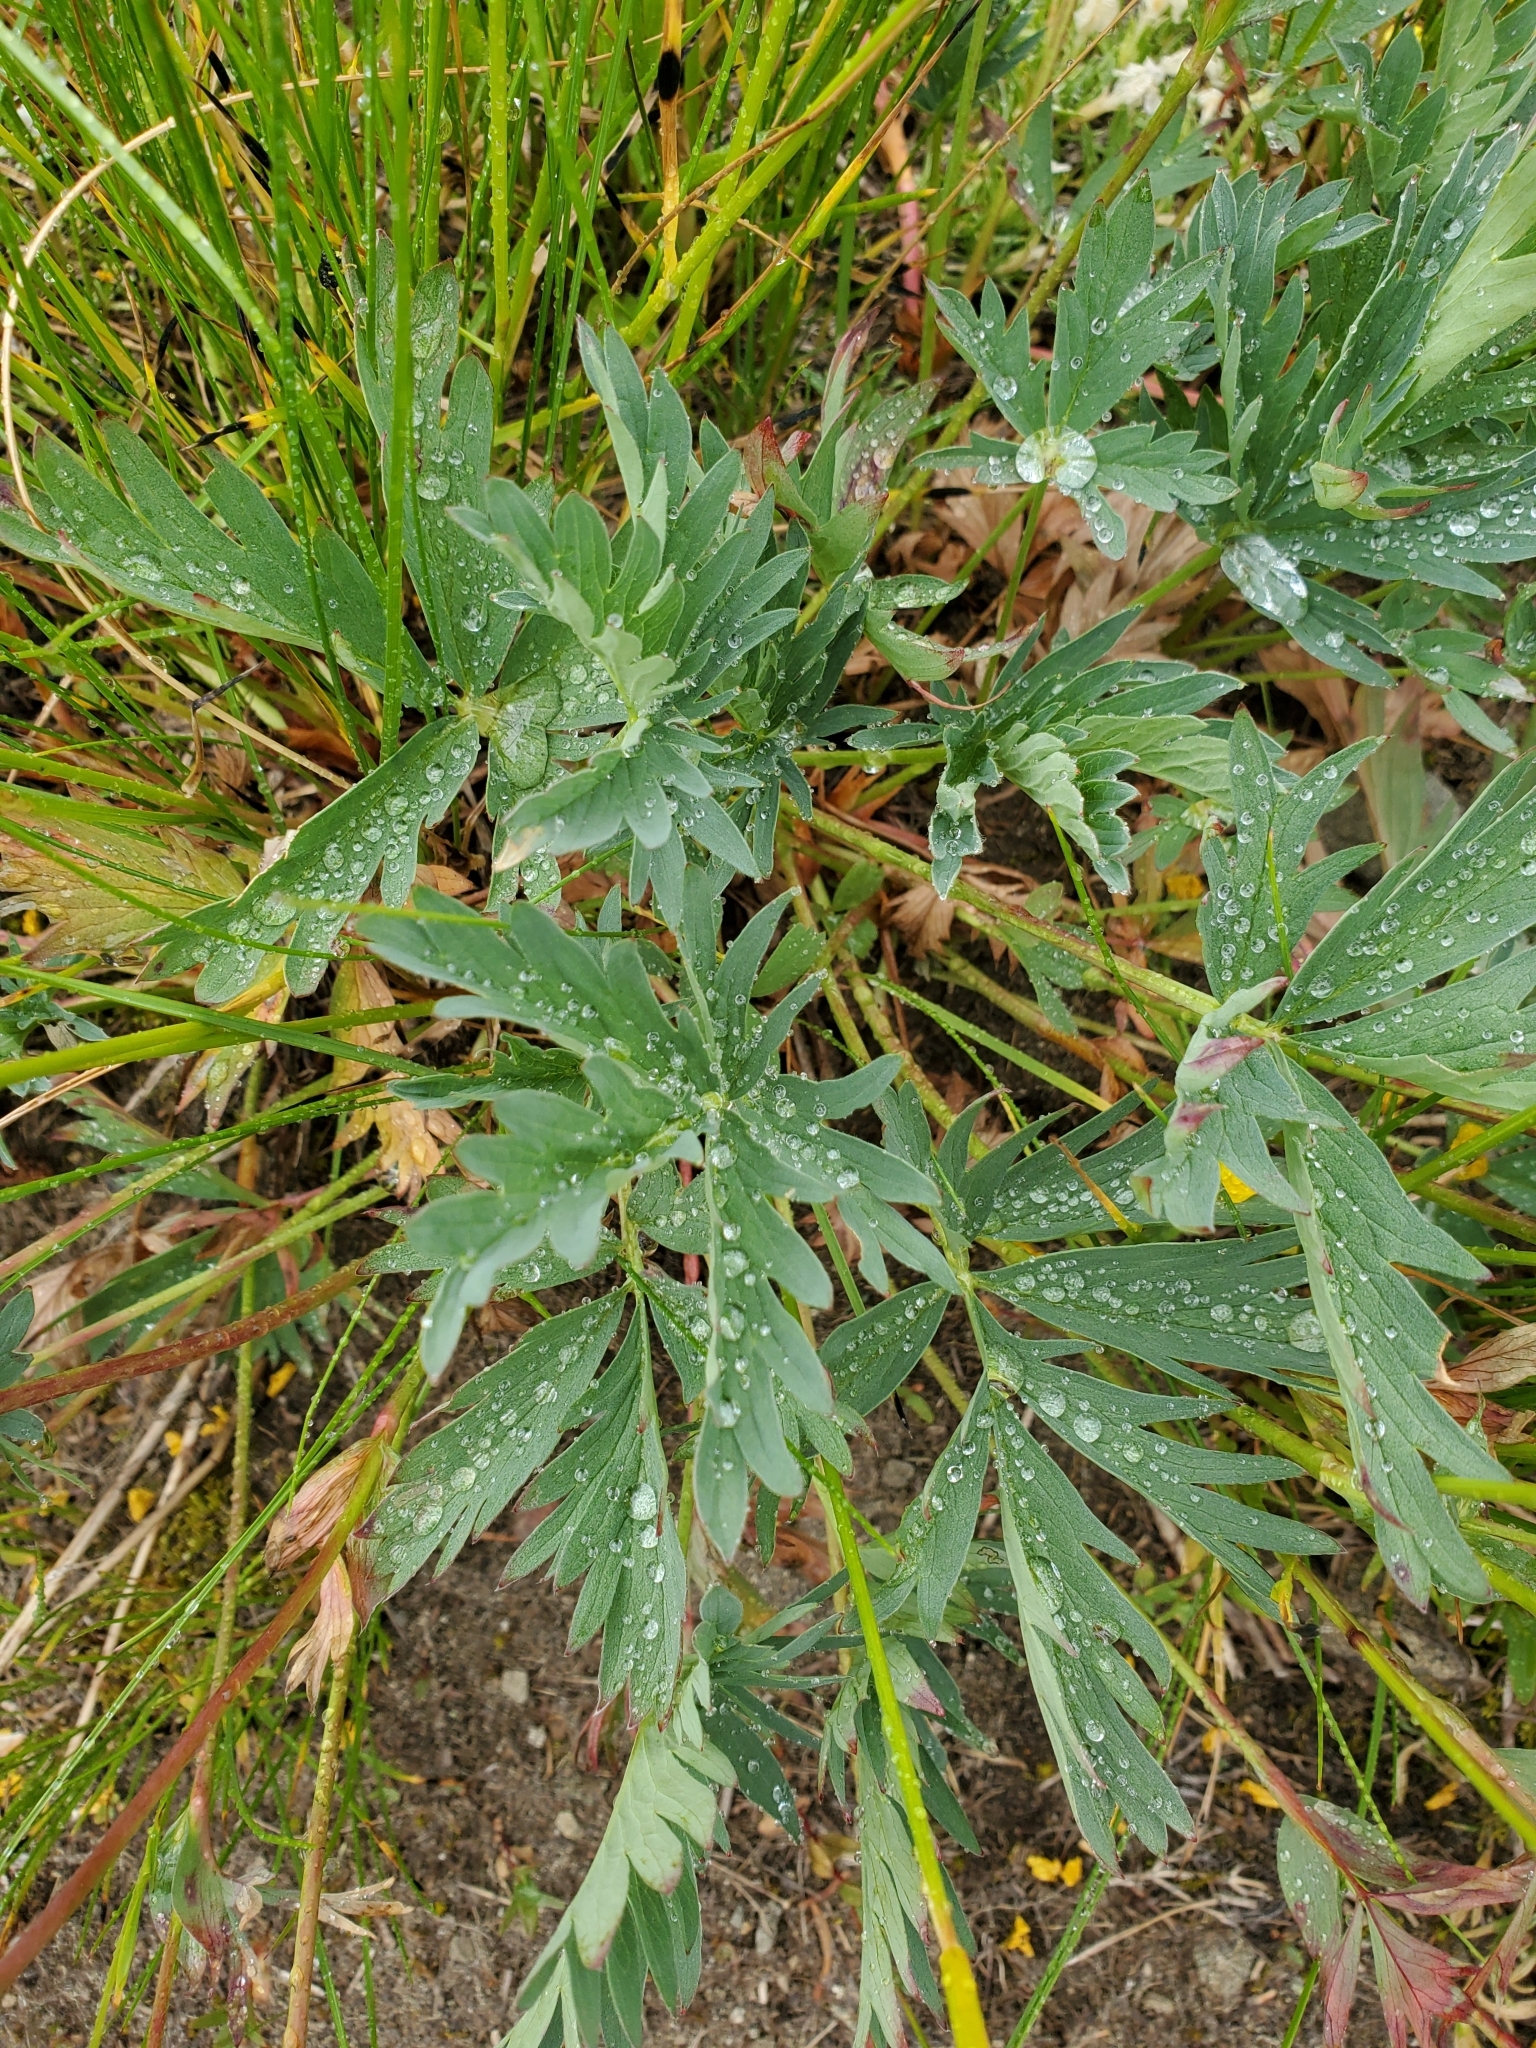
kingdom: Plantae
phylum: Tracheophyta
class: Magnoliopsida
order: Rosales
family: Rosaceae
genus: Potentilla
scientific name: Potentilla gracilis
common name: Graceful cinquefoil
